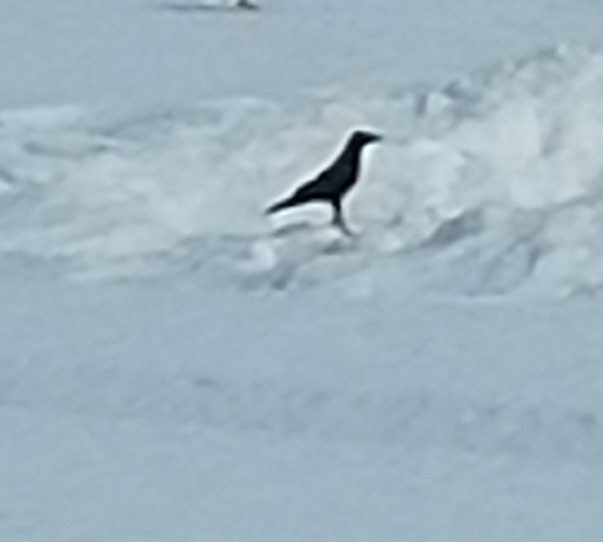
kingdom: Animalia
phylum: Chordata
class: Aves
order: Passeriformes
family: Corvidae
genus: Corvus
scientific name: Corvus corone
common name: Carrion crow
